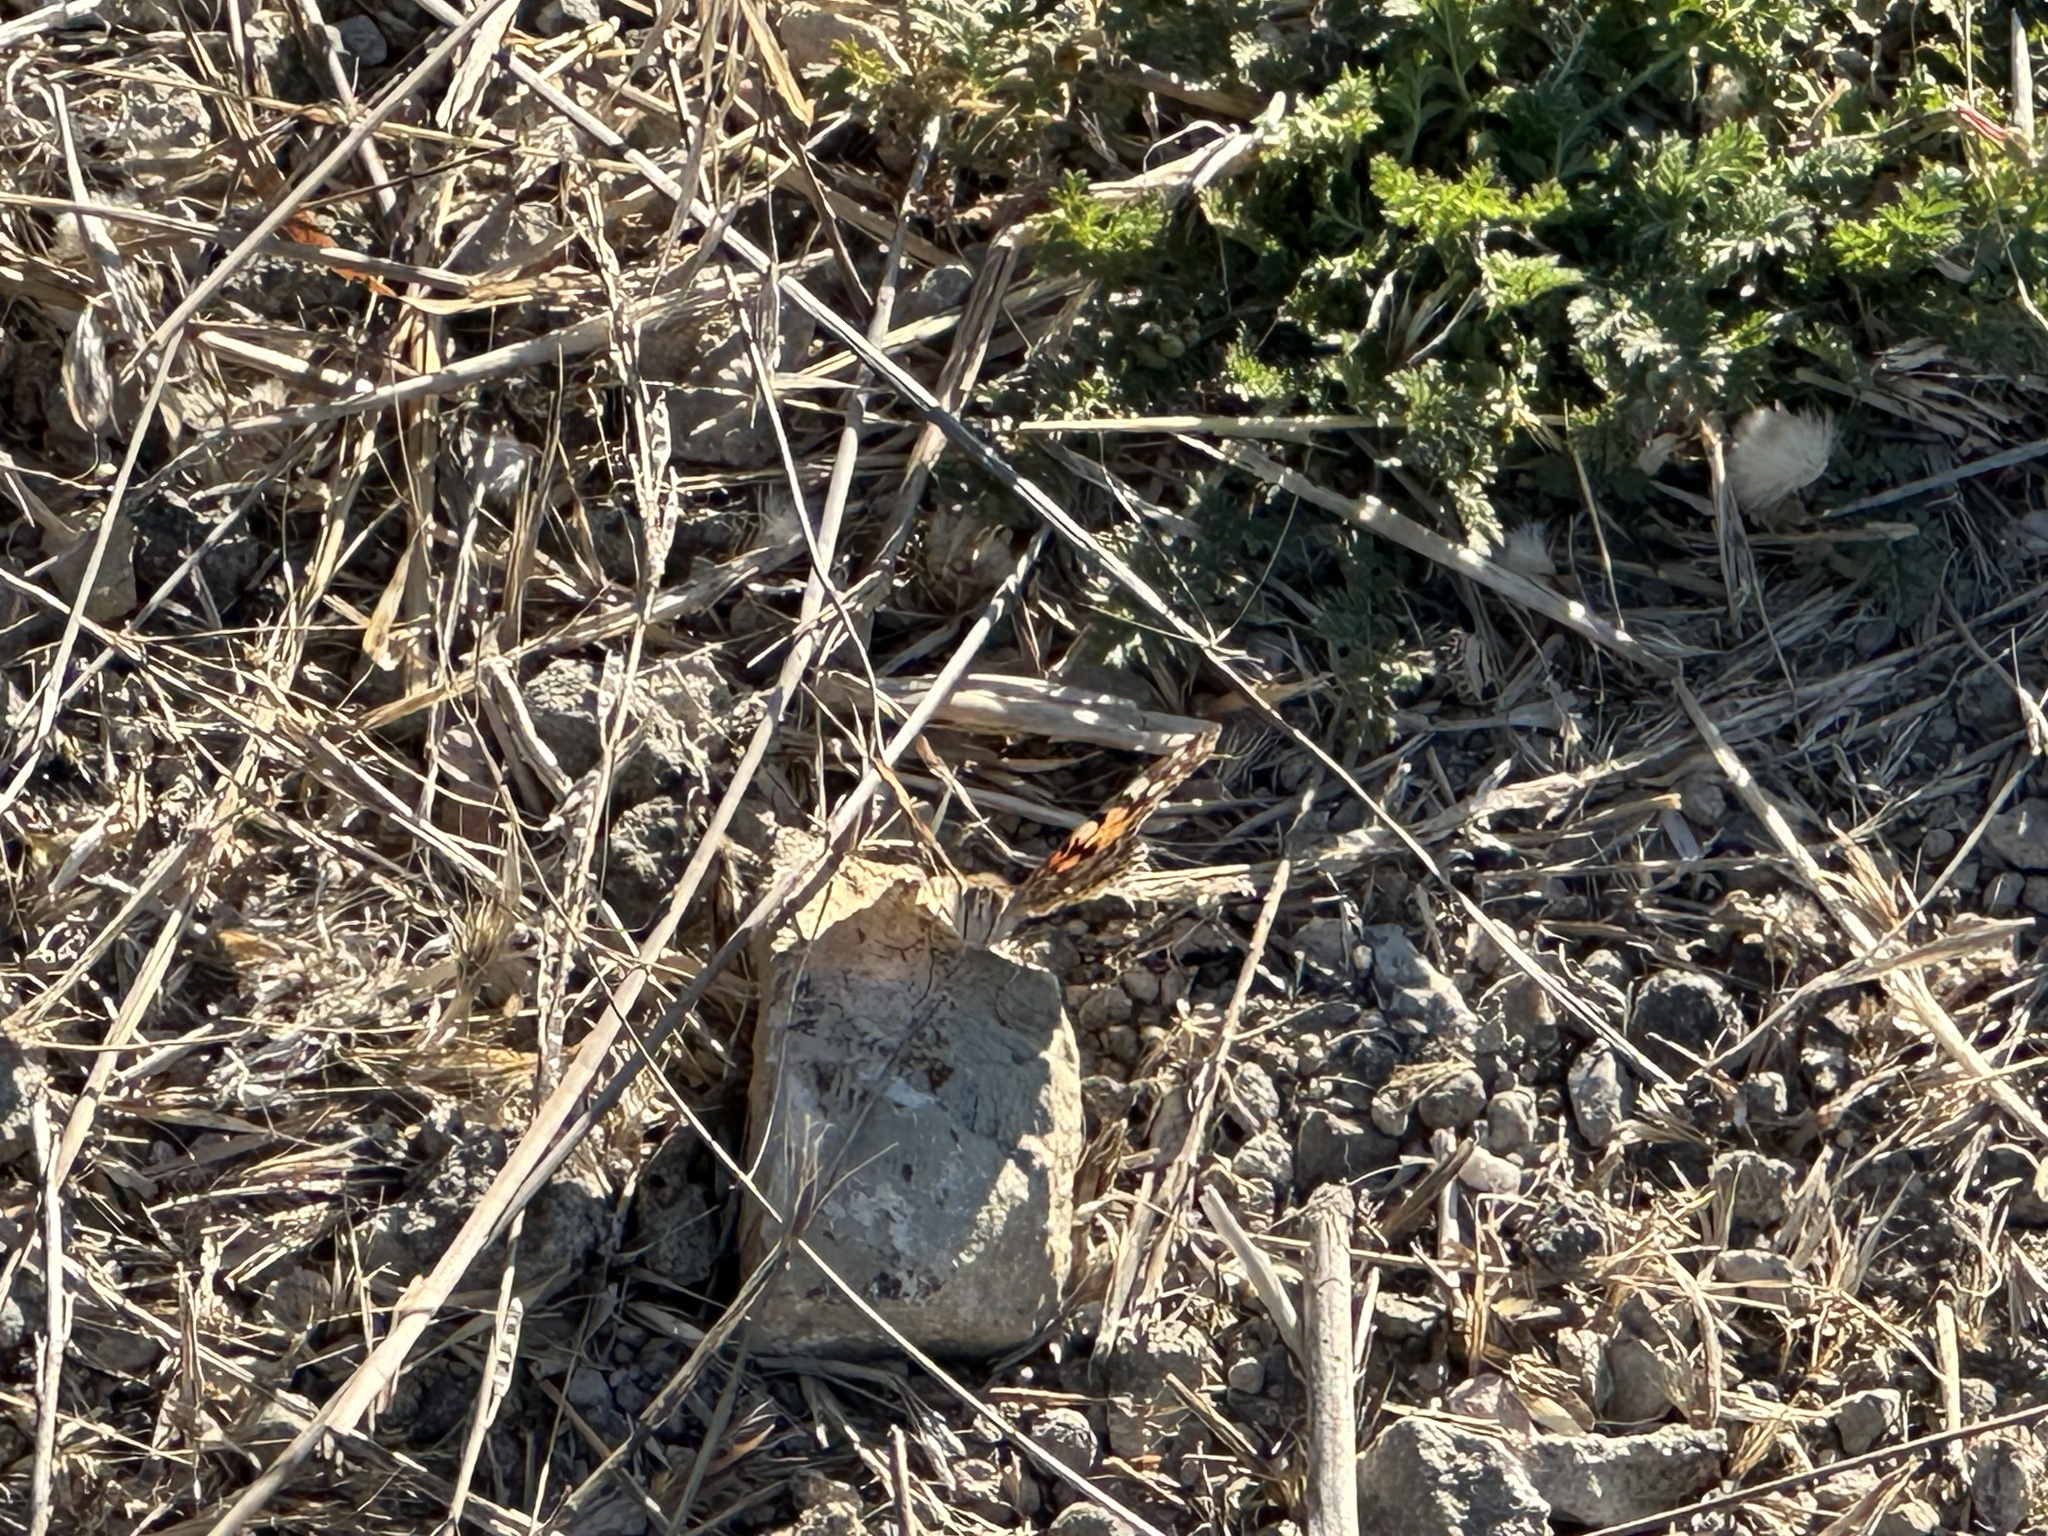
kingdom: Animalia
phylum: Arthropoda
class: Insecta
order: Lepidoptera
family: Nymphalidae
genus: Vanessa
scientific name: Vanessa cardui
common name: Painted lady
